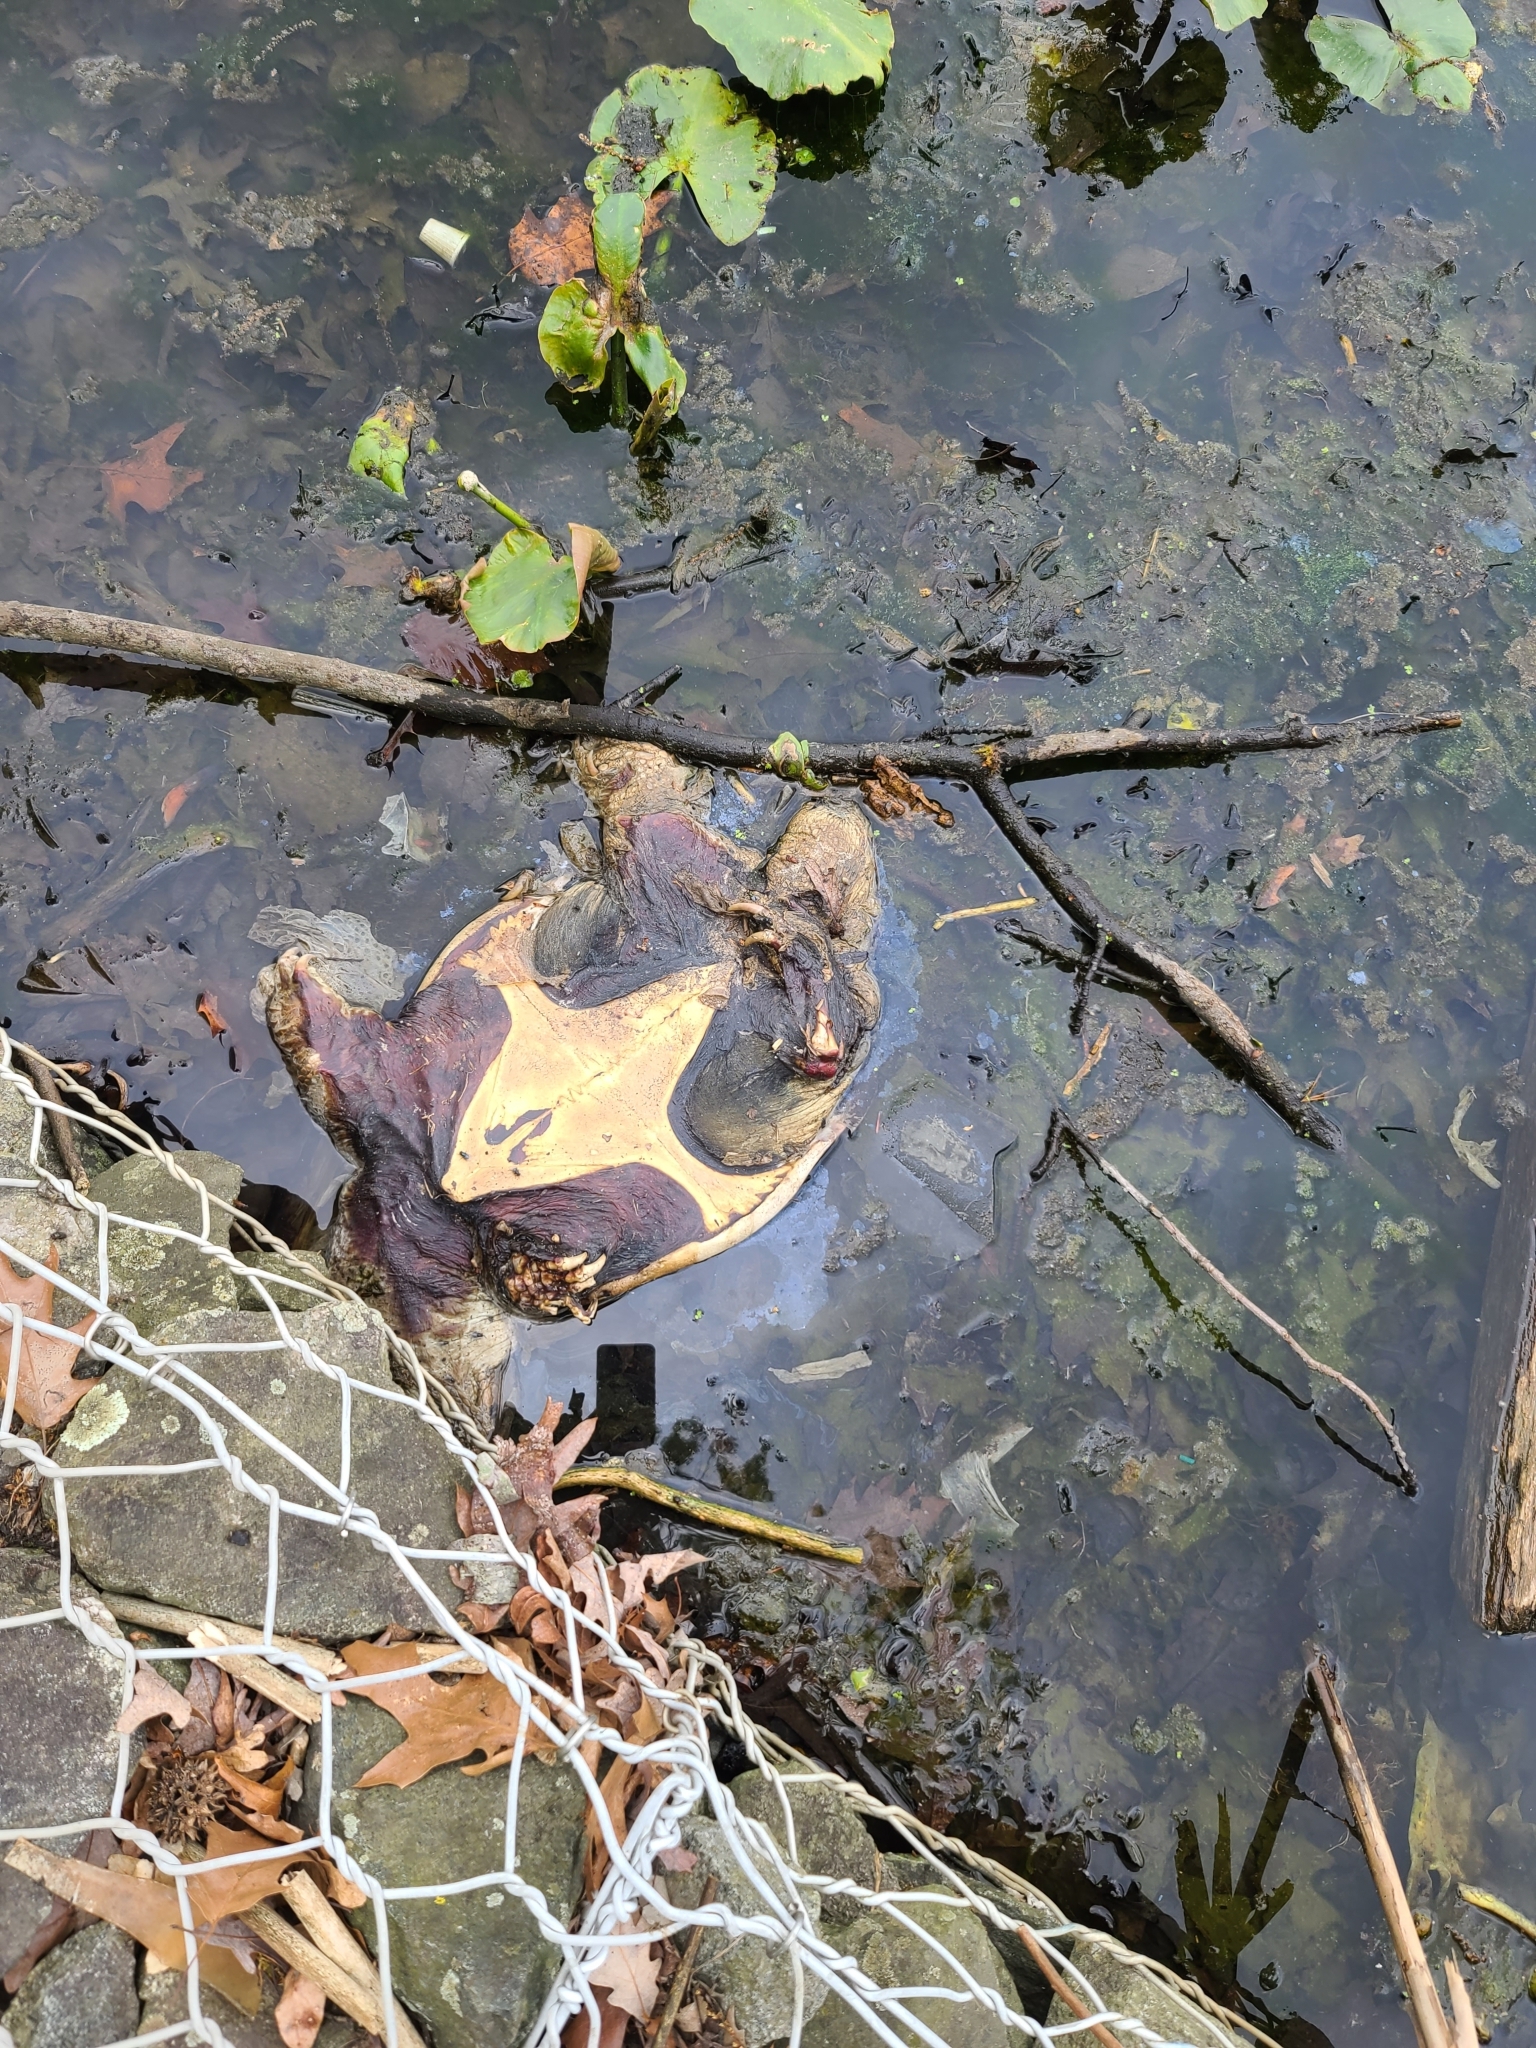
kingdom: Animalia
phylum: Chordata
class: Testudines
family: Chelydridae
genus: Chelydra
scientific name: Chelydra serpentina
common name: Common snapping turtle
